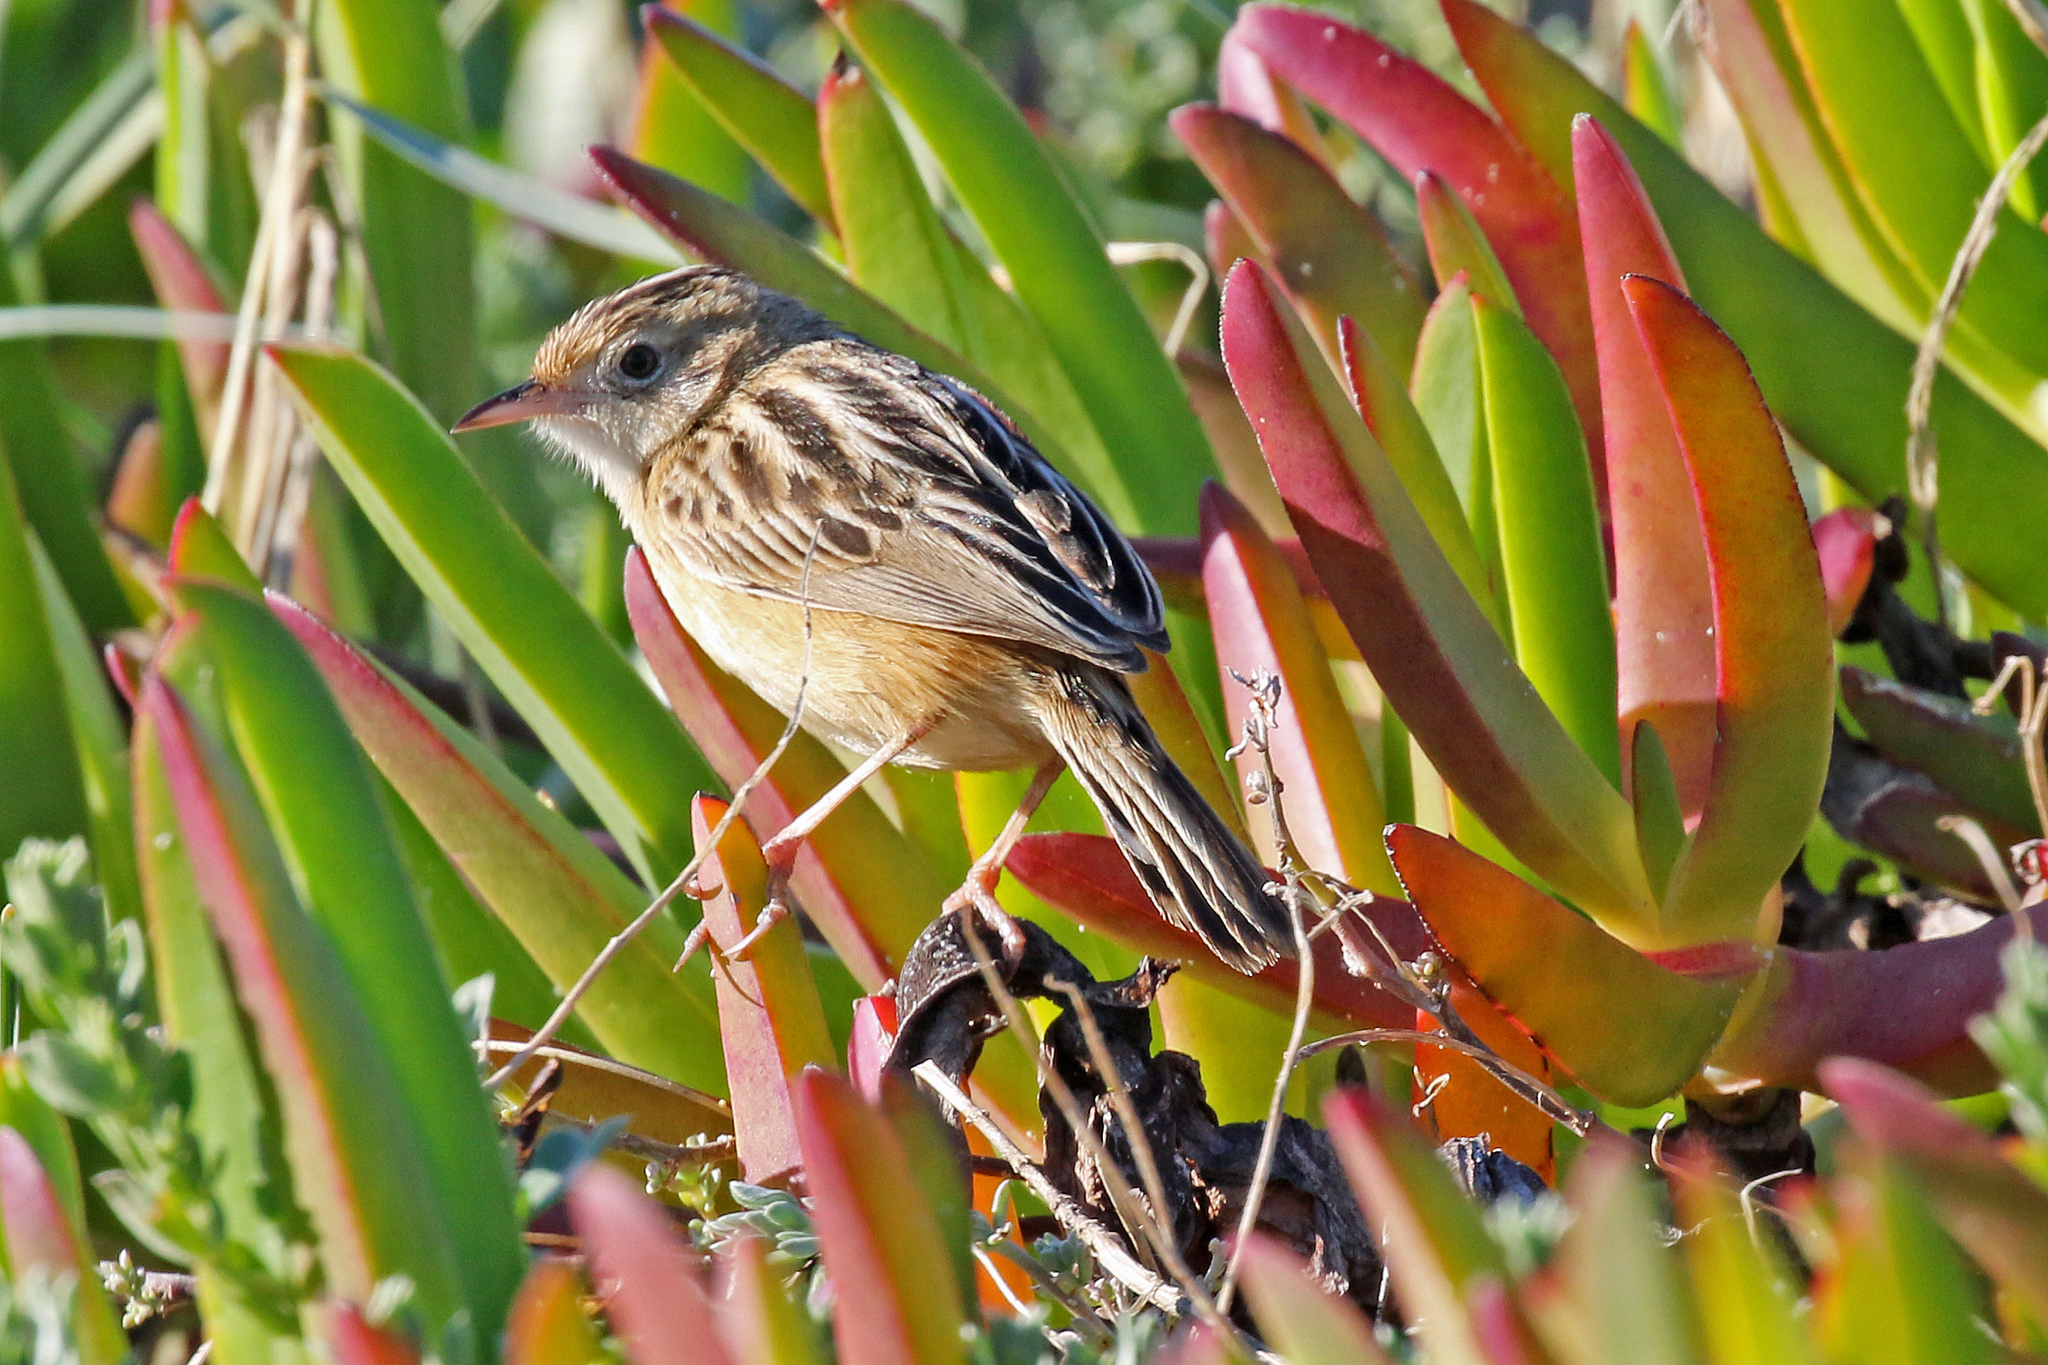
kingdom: Animalia
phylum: Chordata
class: Aves
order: Passeriformes
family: Cisticolidae
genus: Cisticola
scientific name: Cisticola juncidis
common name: Zitting cisticola
